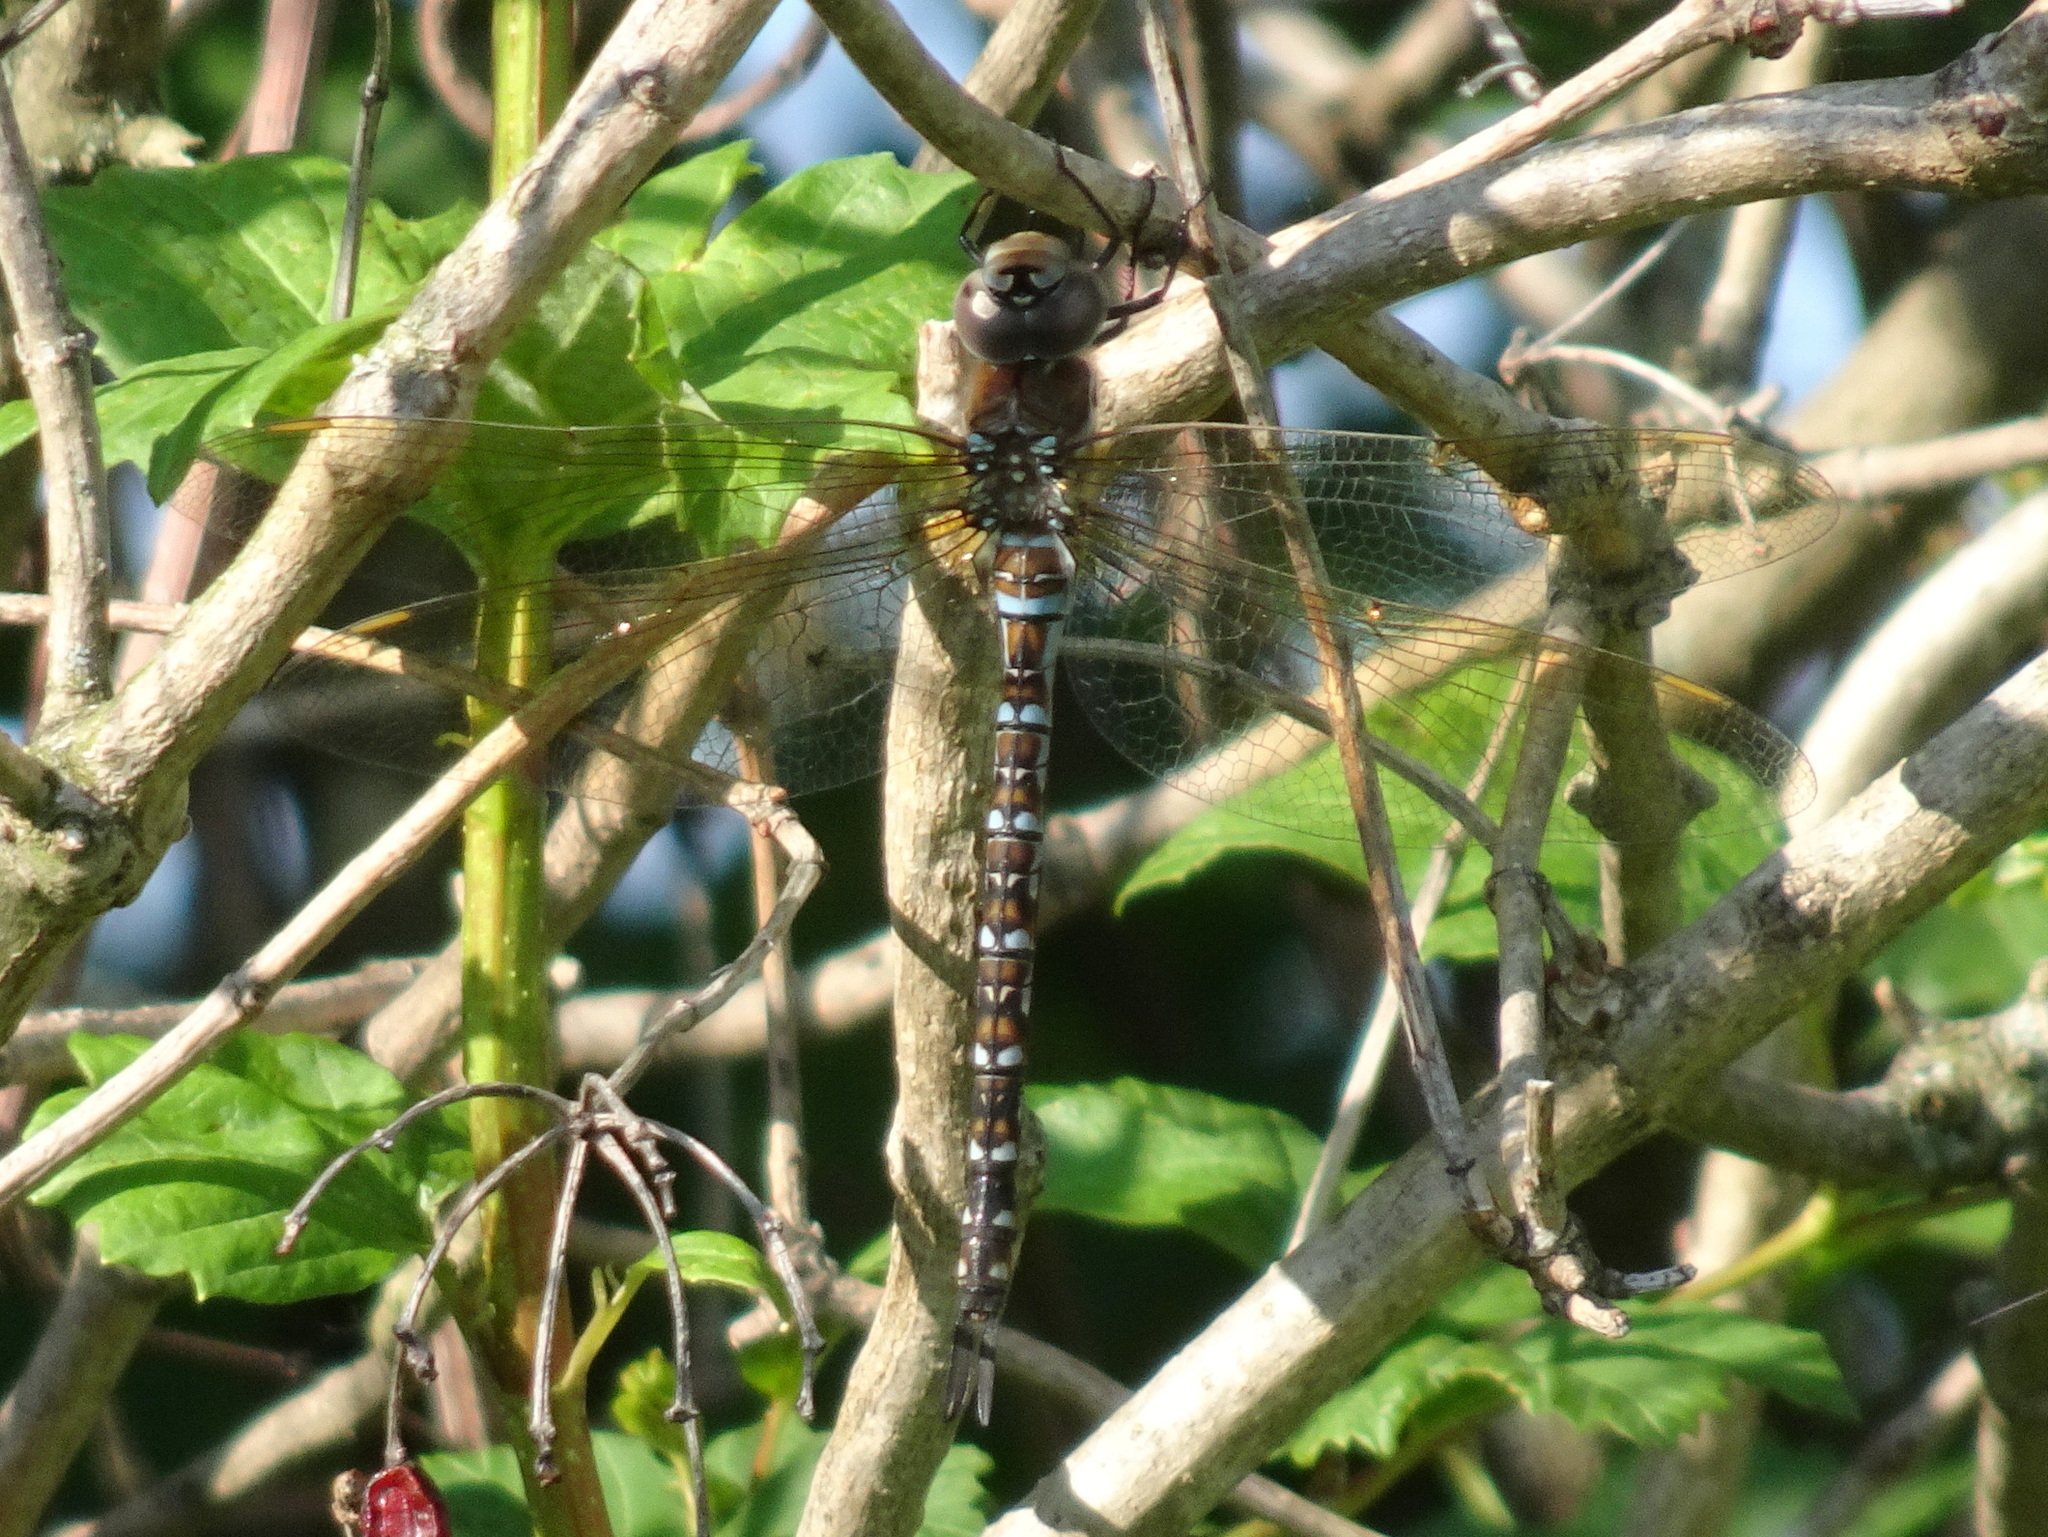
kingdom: Animalia
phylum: Arthropoda
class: Insecta
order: Odonata
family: Aeshnidae
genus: Rhionaeschna
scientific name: Rhionaeschna mutata
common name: Spatterdock darner
